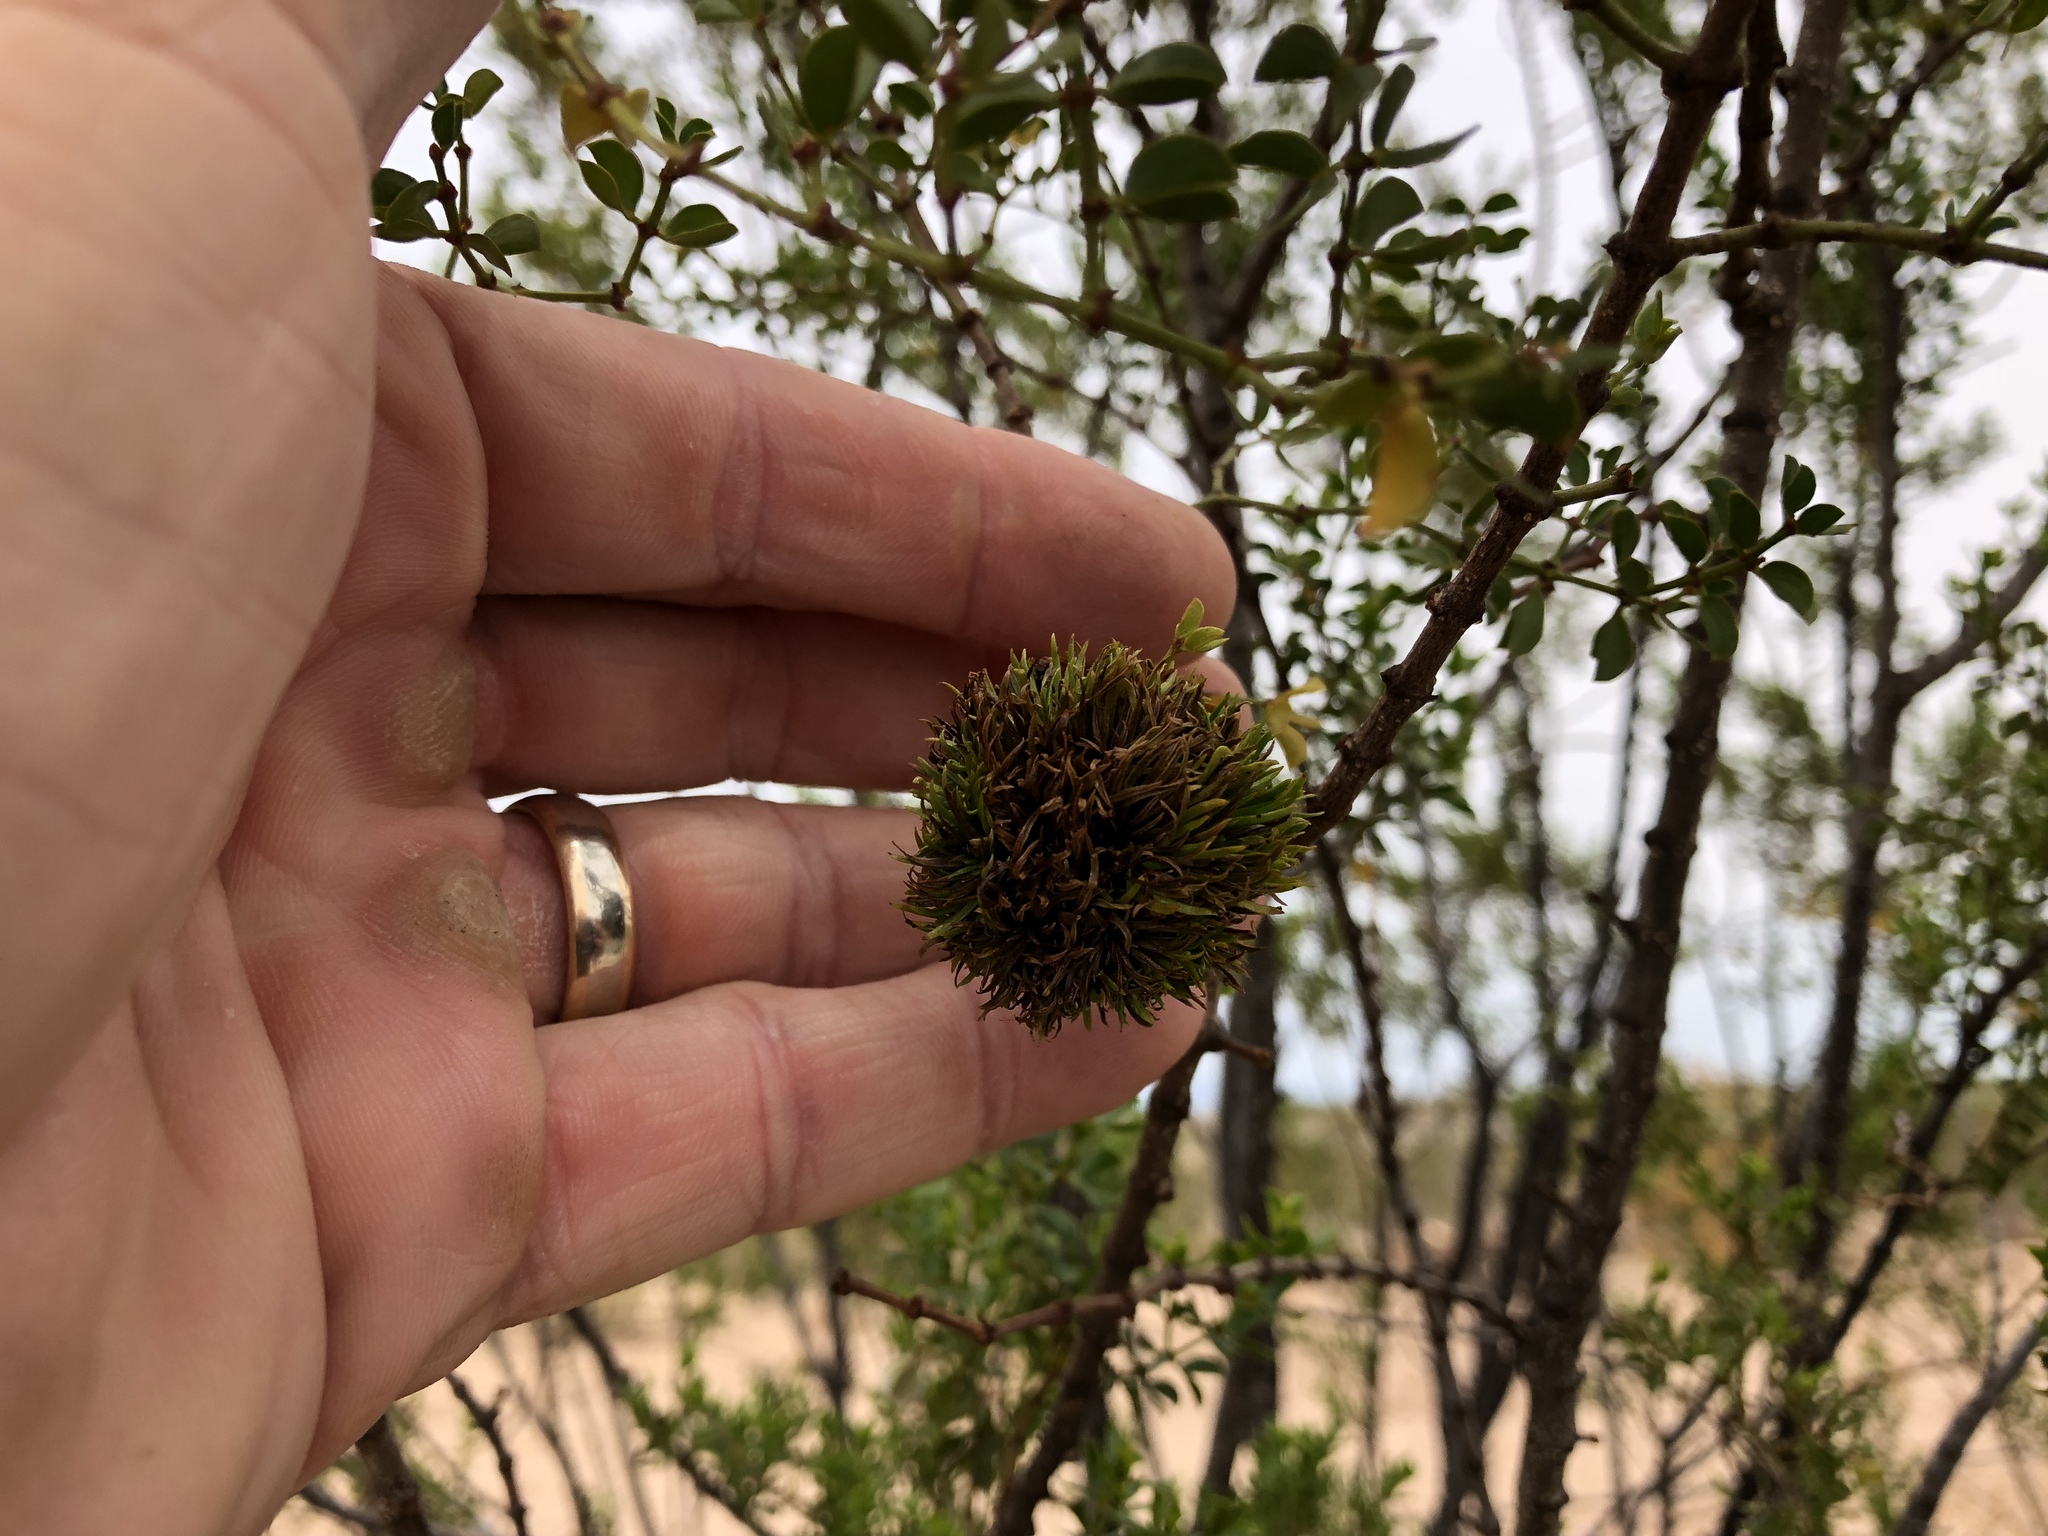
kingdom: Animalia
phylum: Arthropoda
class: Insecta
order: Diptera
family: Cecidomyiidae
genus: Asphondylia
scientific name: Asphondylia auripila
